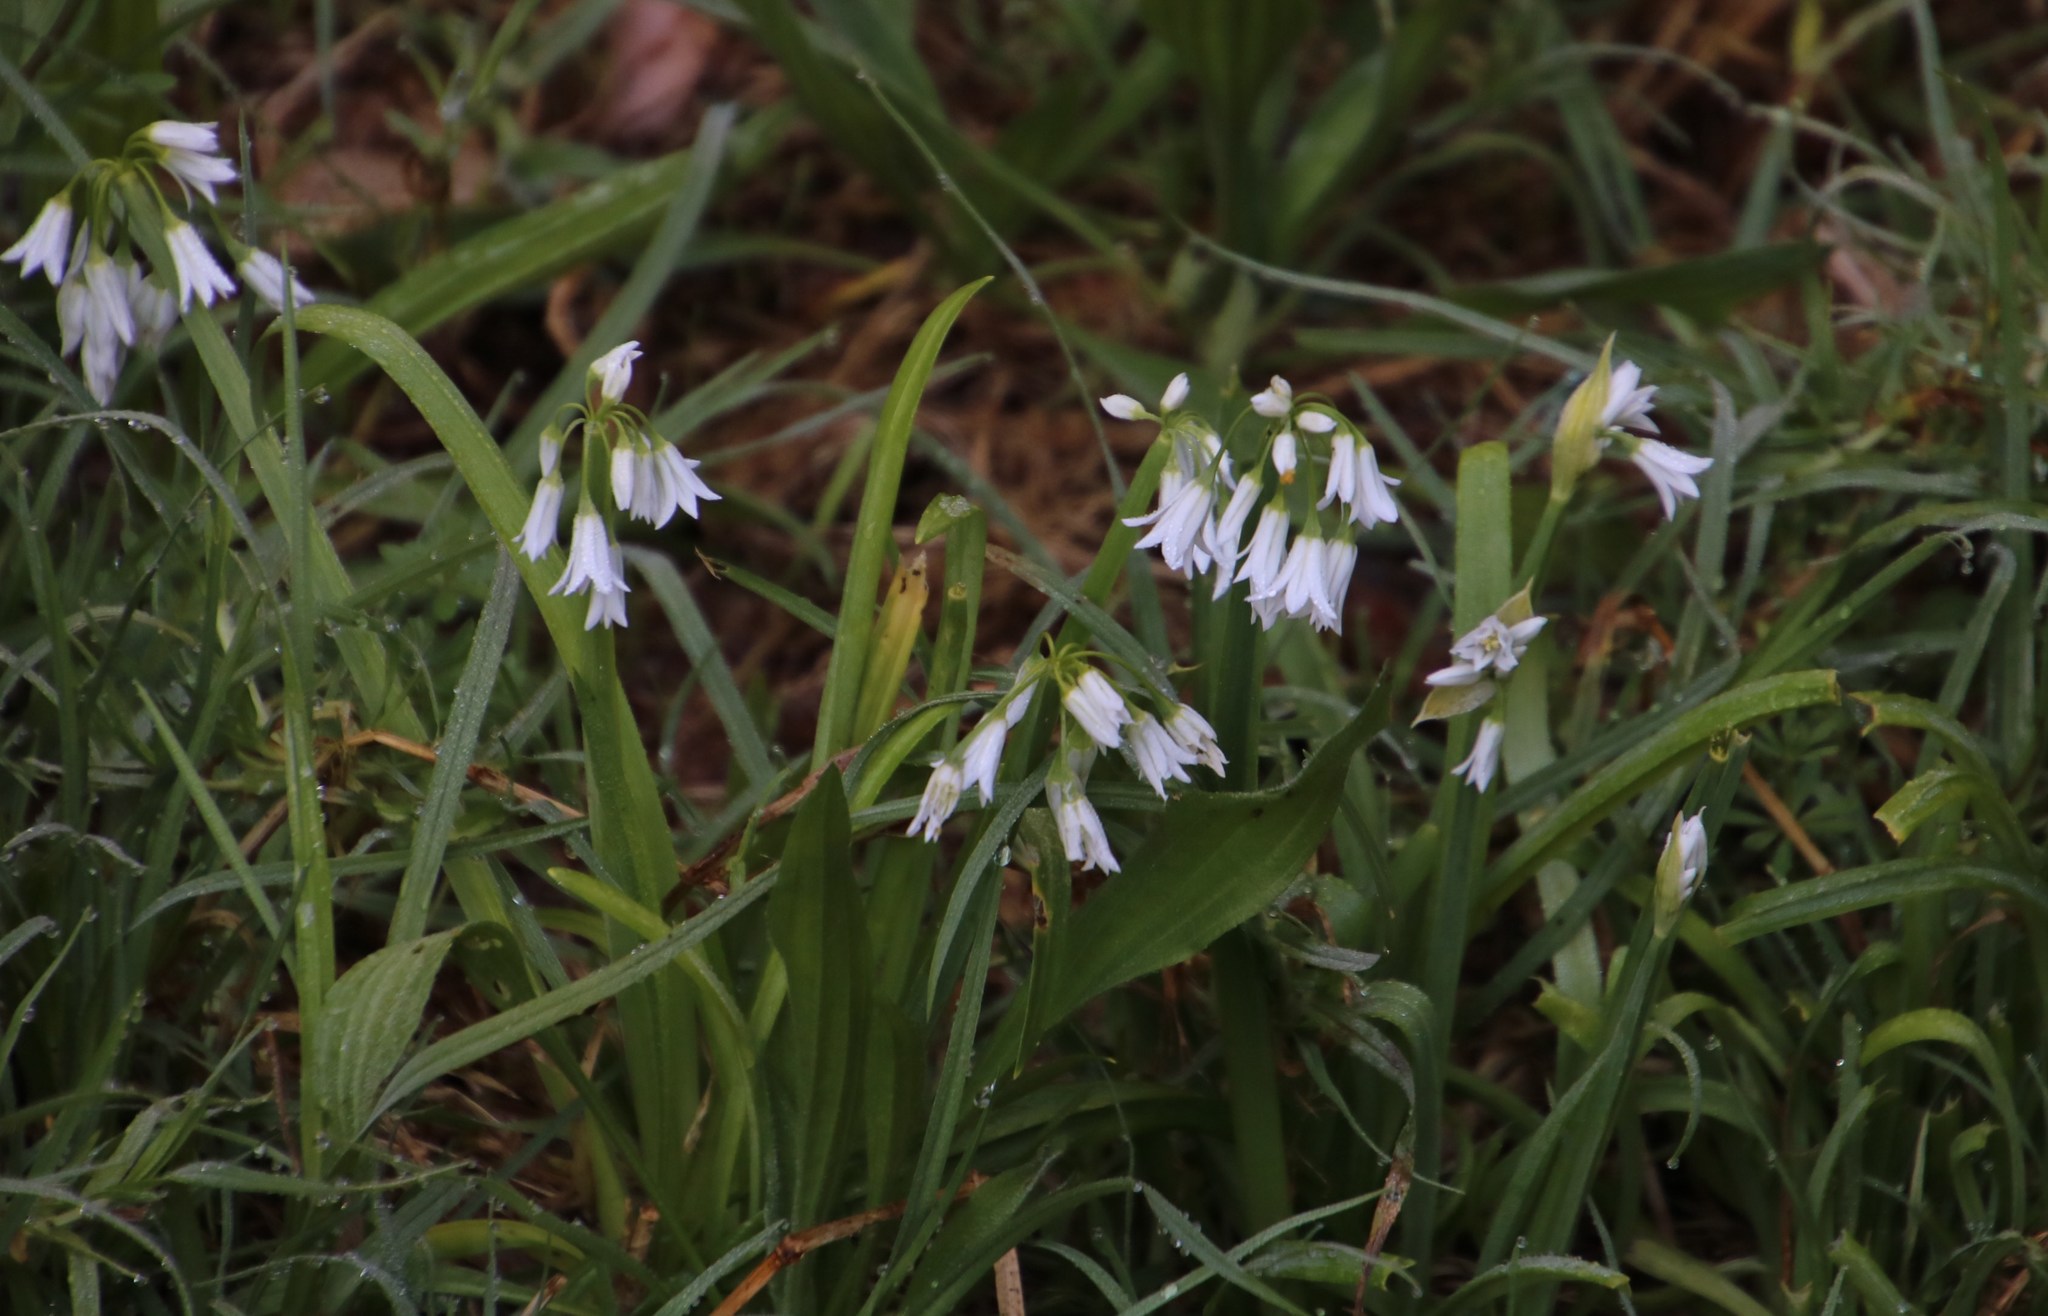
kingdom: Plantae
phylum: Tracheophyta
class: Liliopsida
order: Asparagales
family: Amaryllidaceae
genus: Allium
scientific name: Allium triquetrum
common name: Three-cornered garlic
